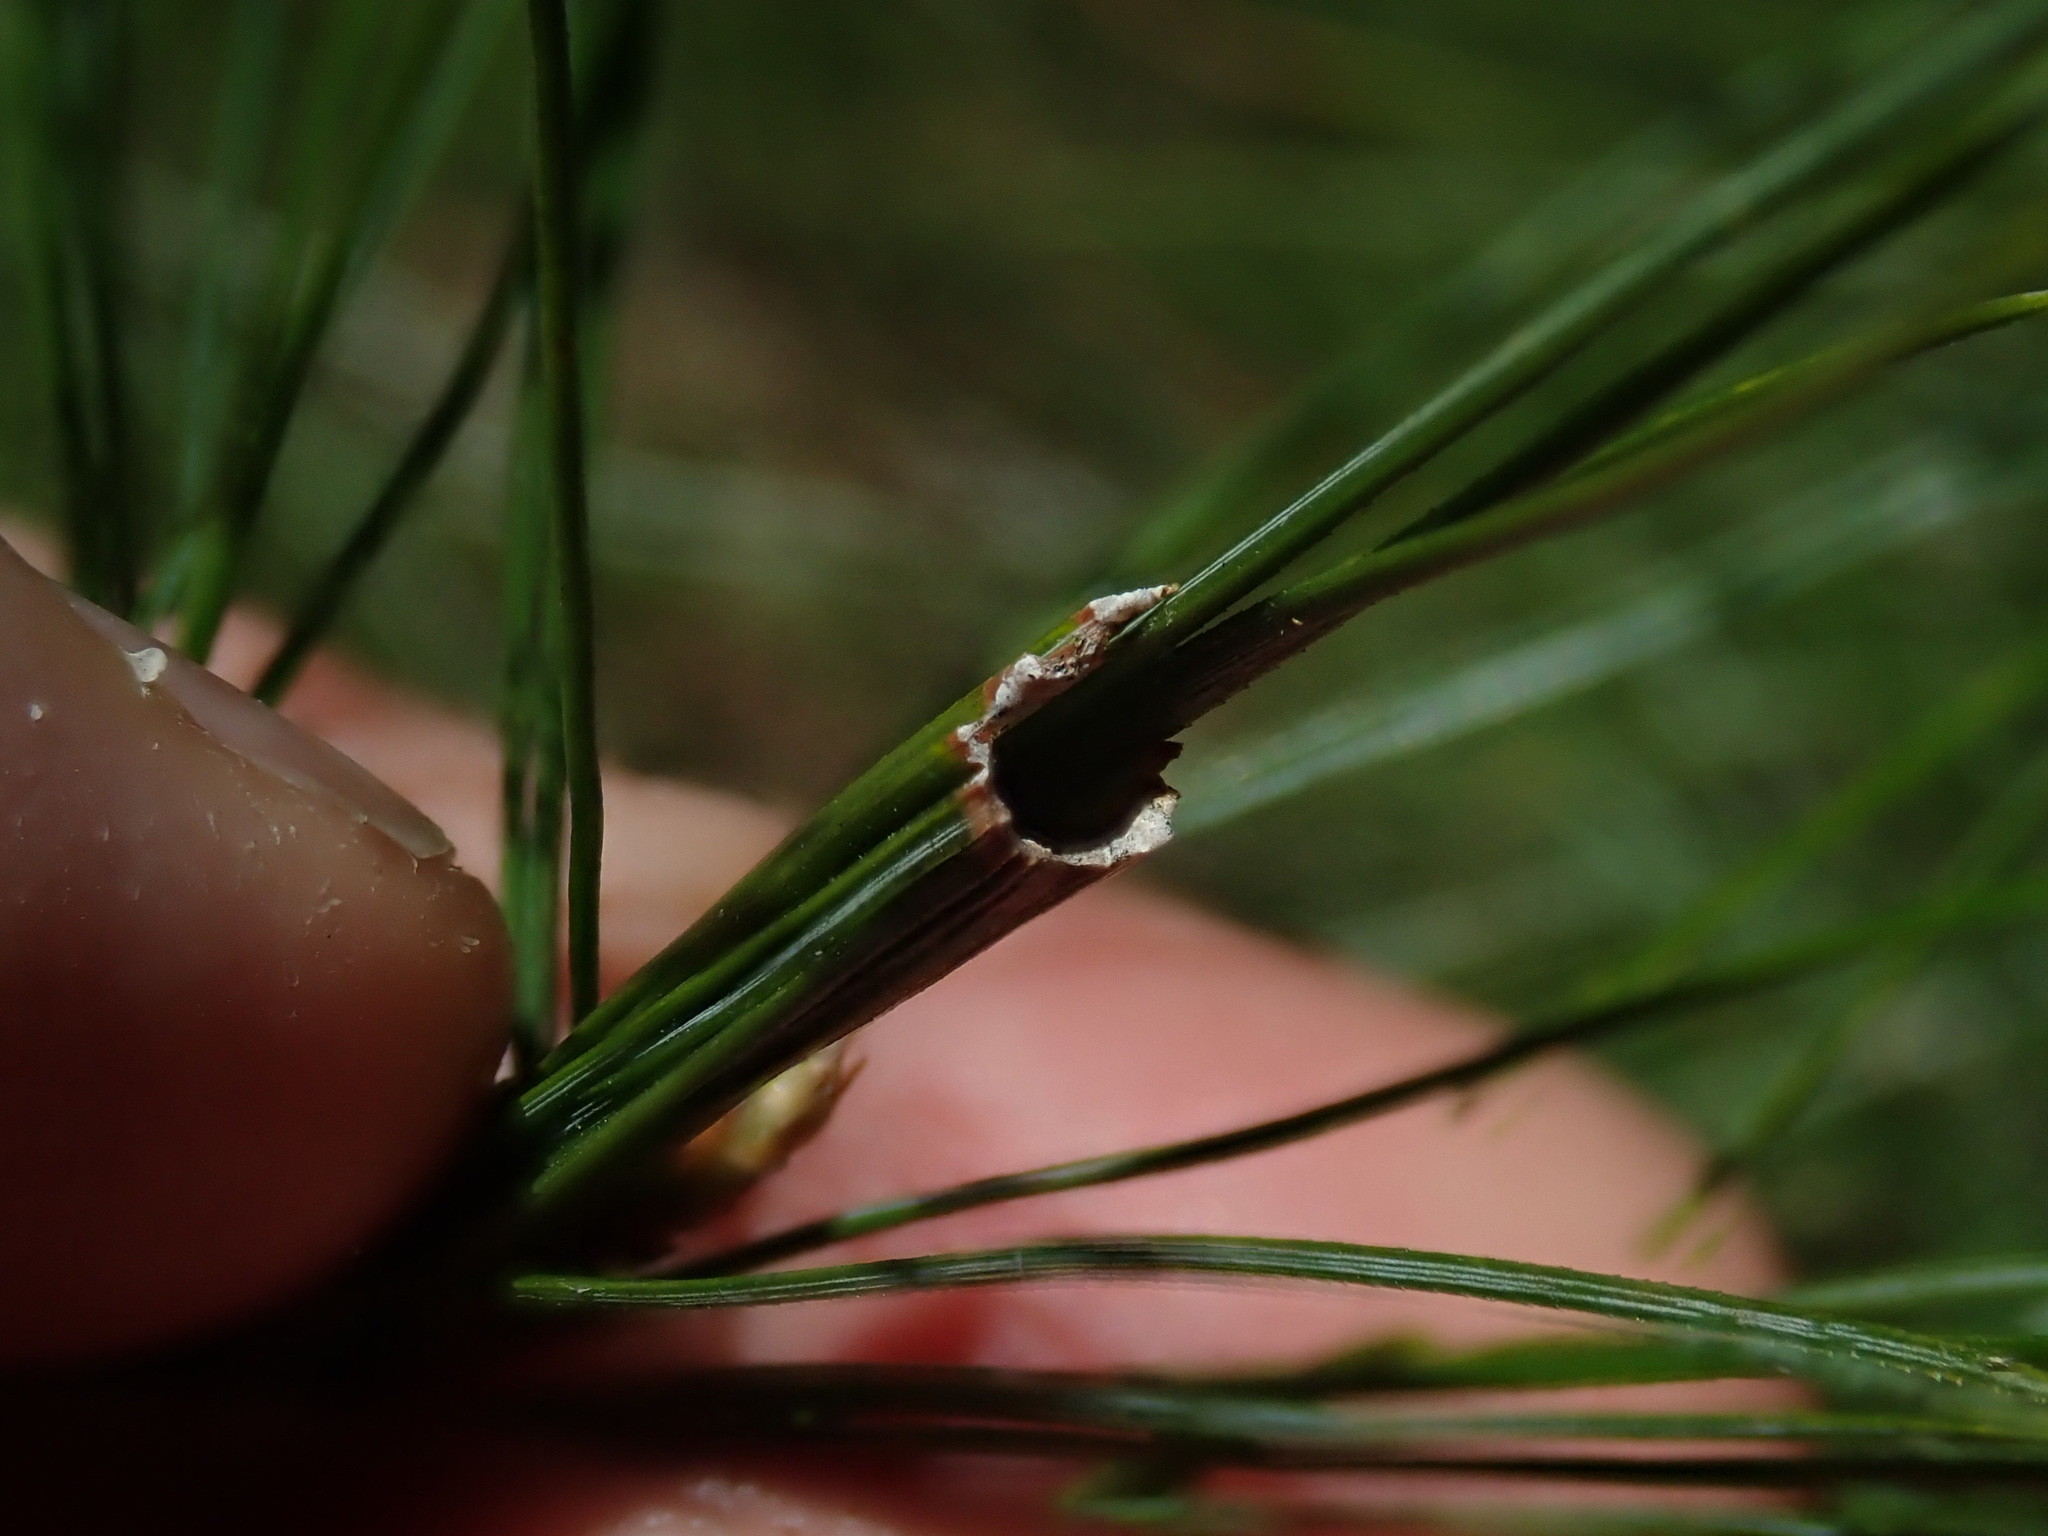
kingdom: Animalia
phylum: Arthropoda
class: Insecta
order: Lepidoptera
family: Tortricidae
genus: Argyrotaenia
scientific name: Argyrotaenia pinatubana
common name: Pine tube moth
